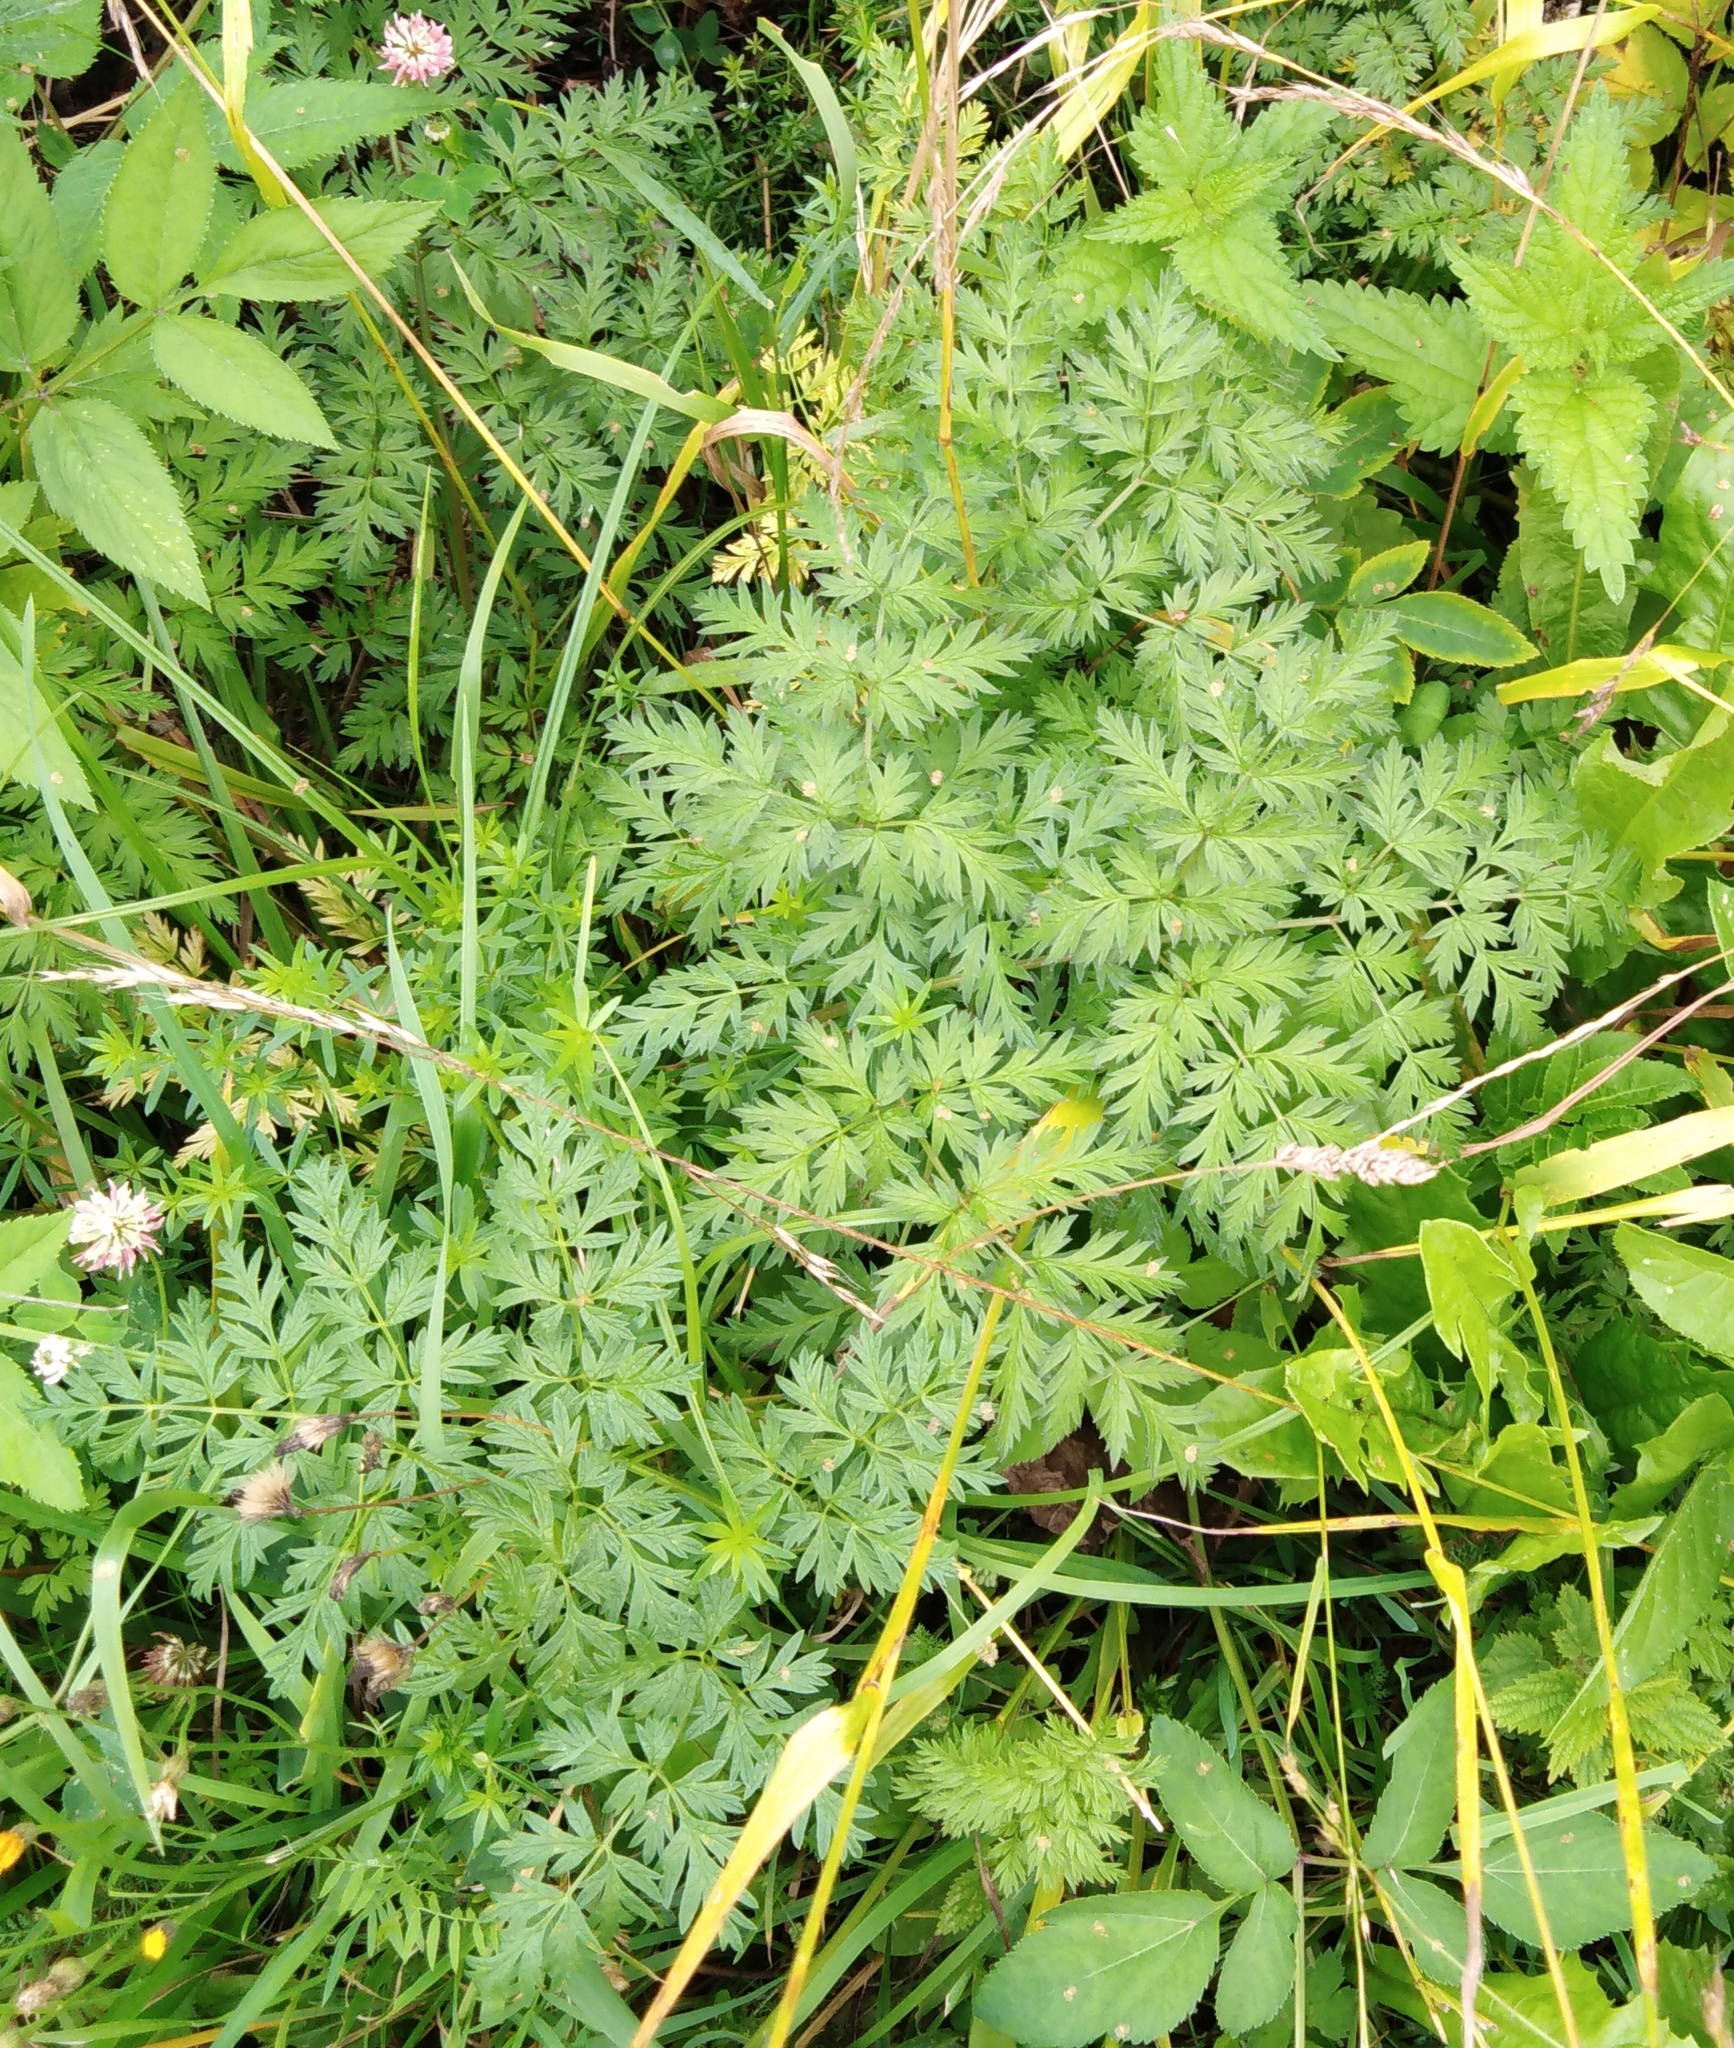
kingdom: Plantae
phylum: Tracheophyta
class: Magnoliopsida
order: Apiales
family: Apiaceae
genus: Anthriscus
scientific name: Anthriscus sylvestris
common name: Cow parsley
